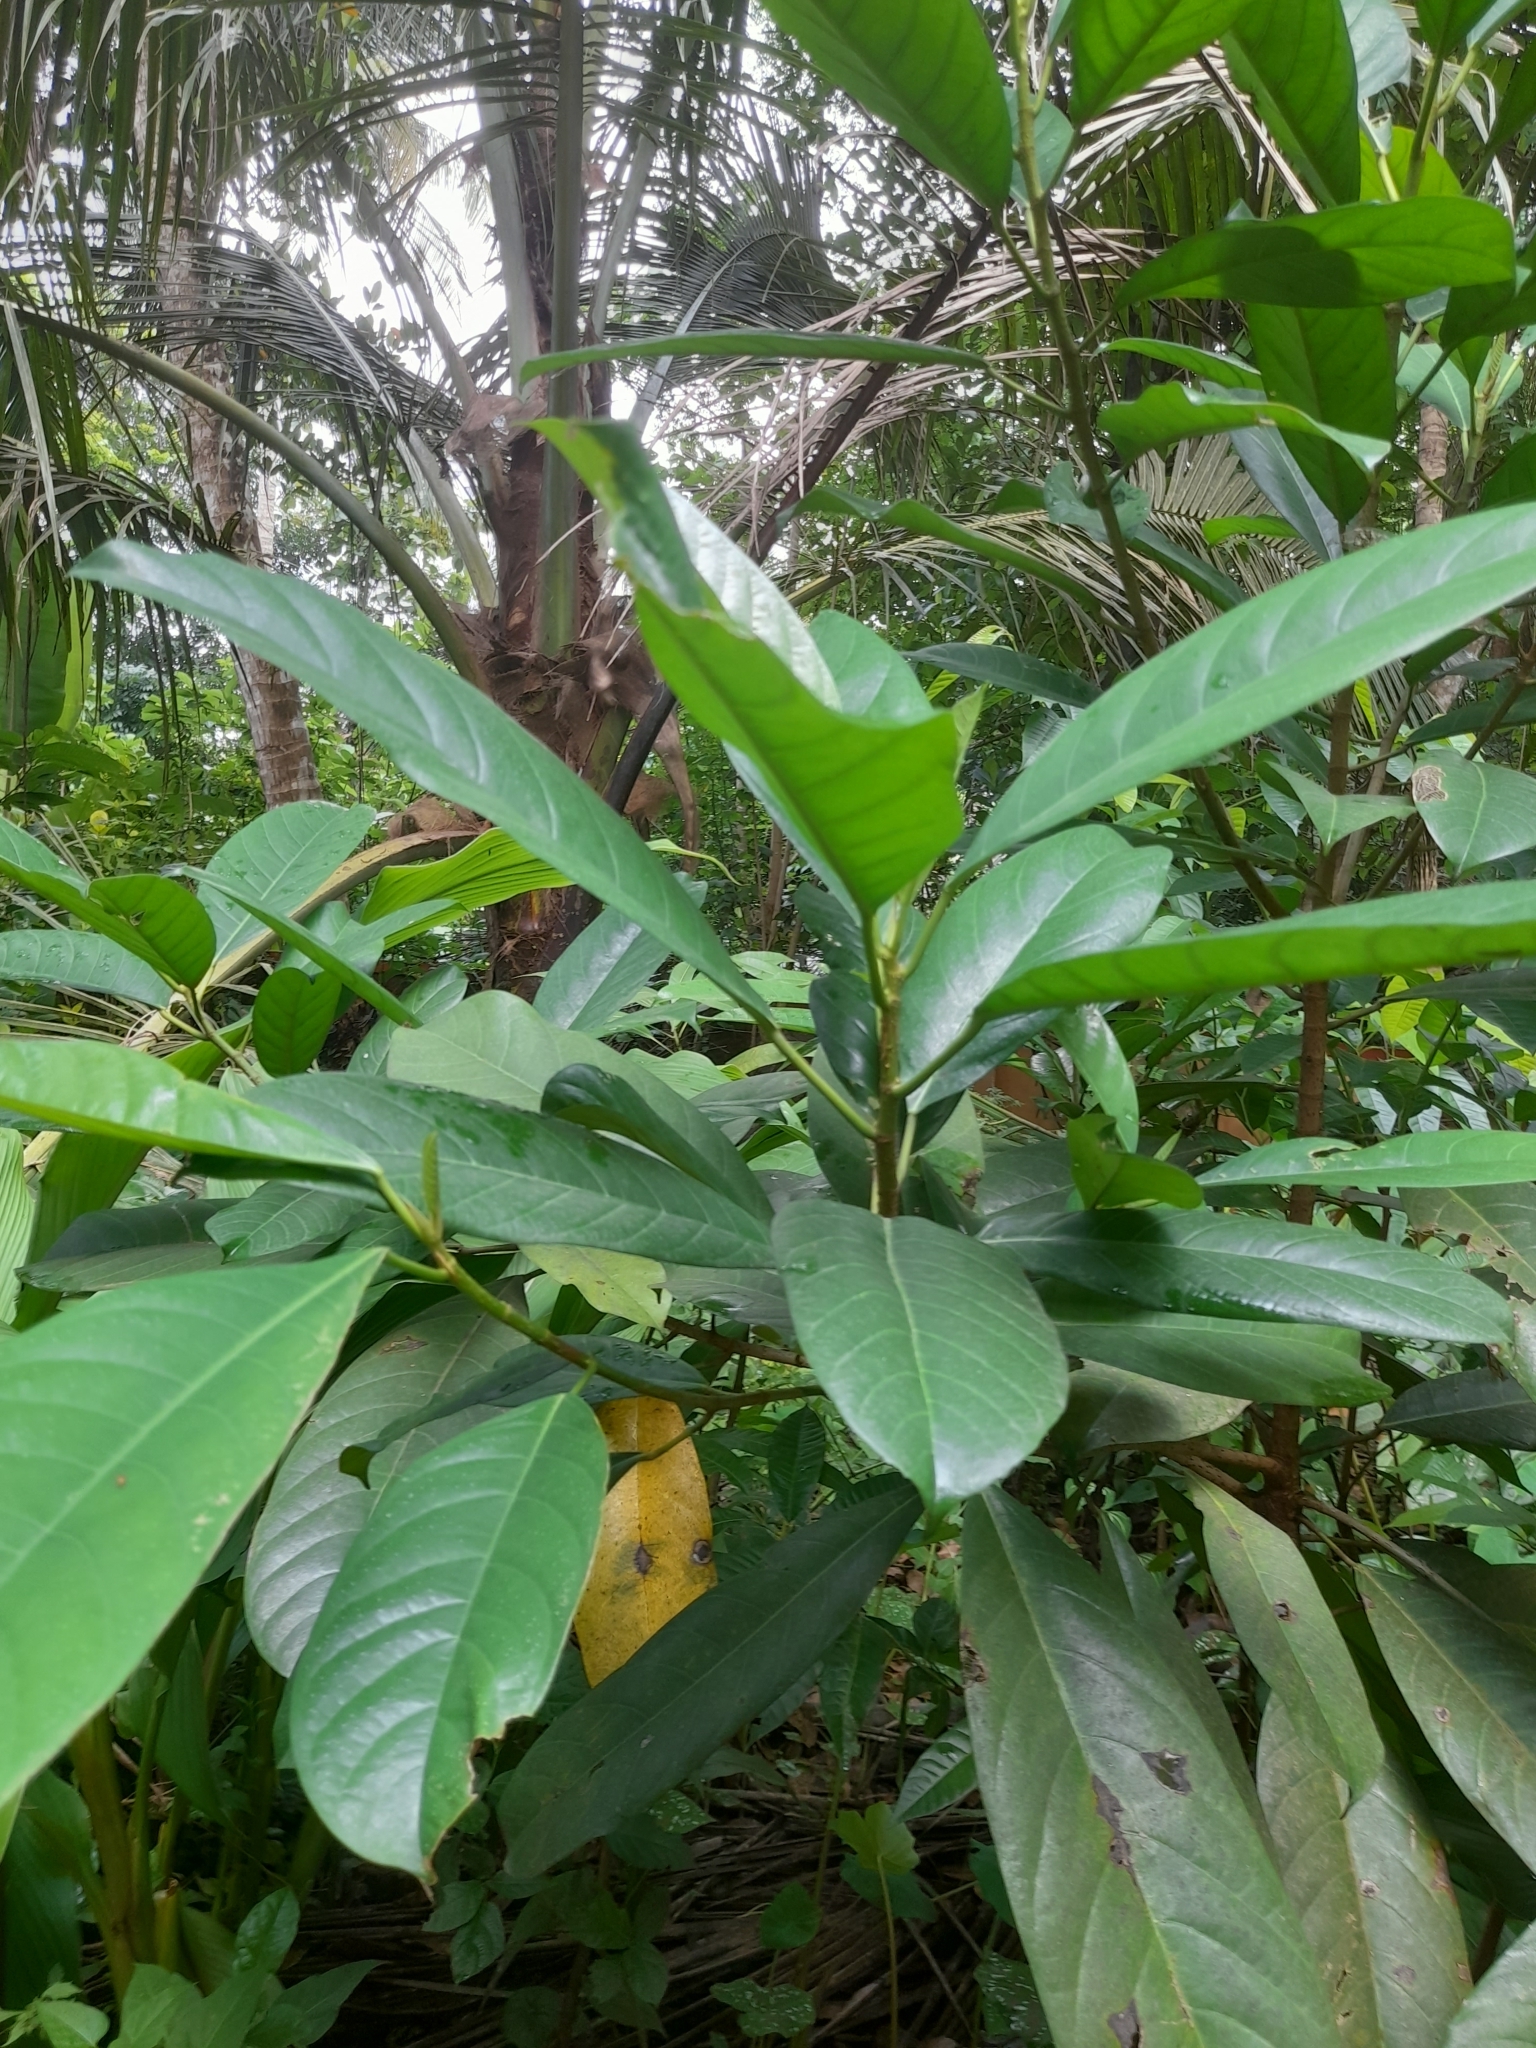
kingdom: Plantae
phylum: Tracheophyta
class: Magnoliopsida
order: Rosales
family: Moraceae
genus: Ficus
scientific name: Ficus callosa
